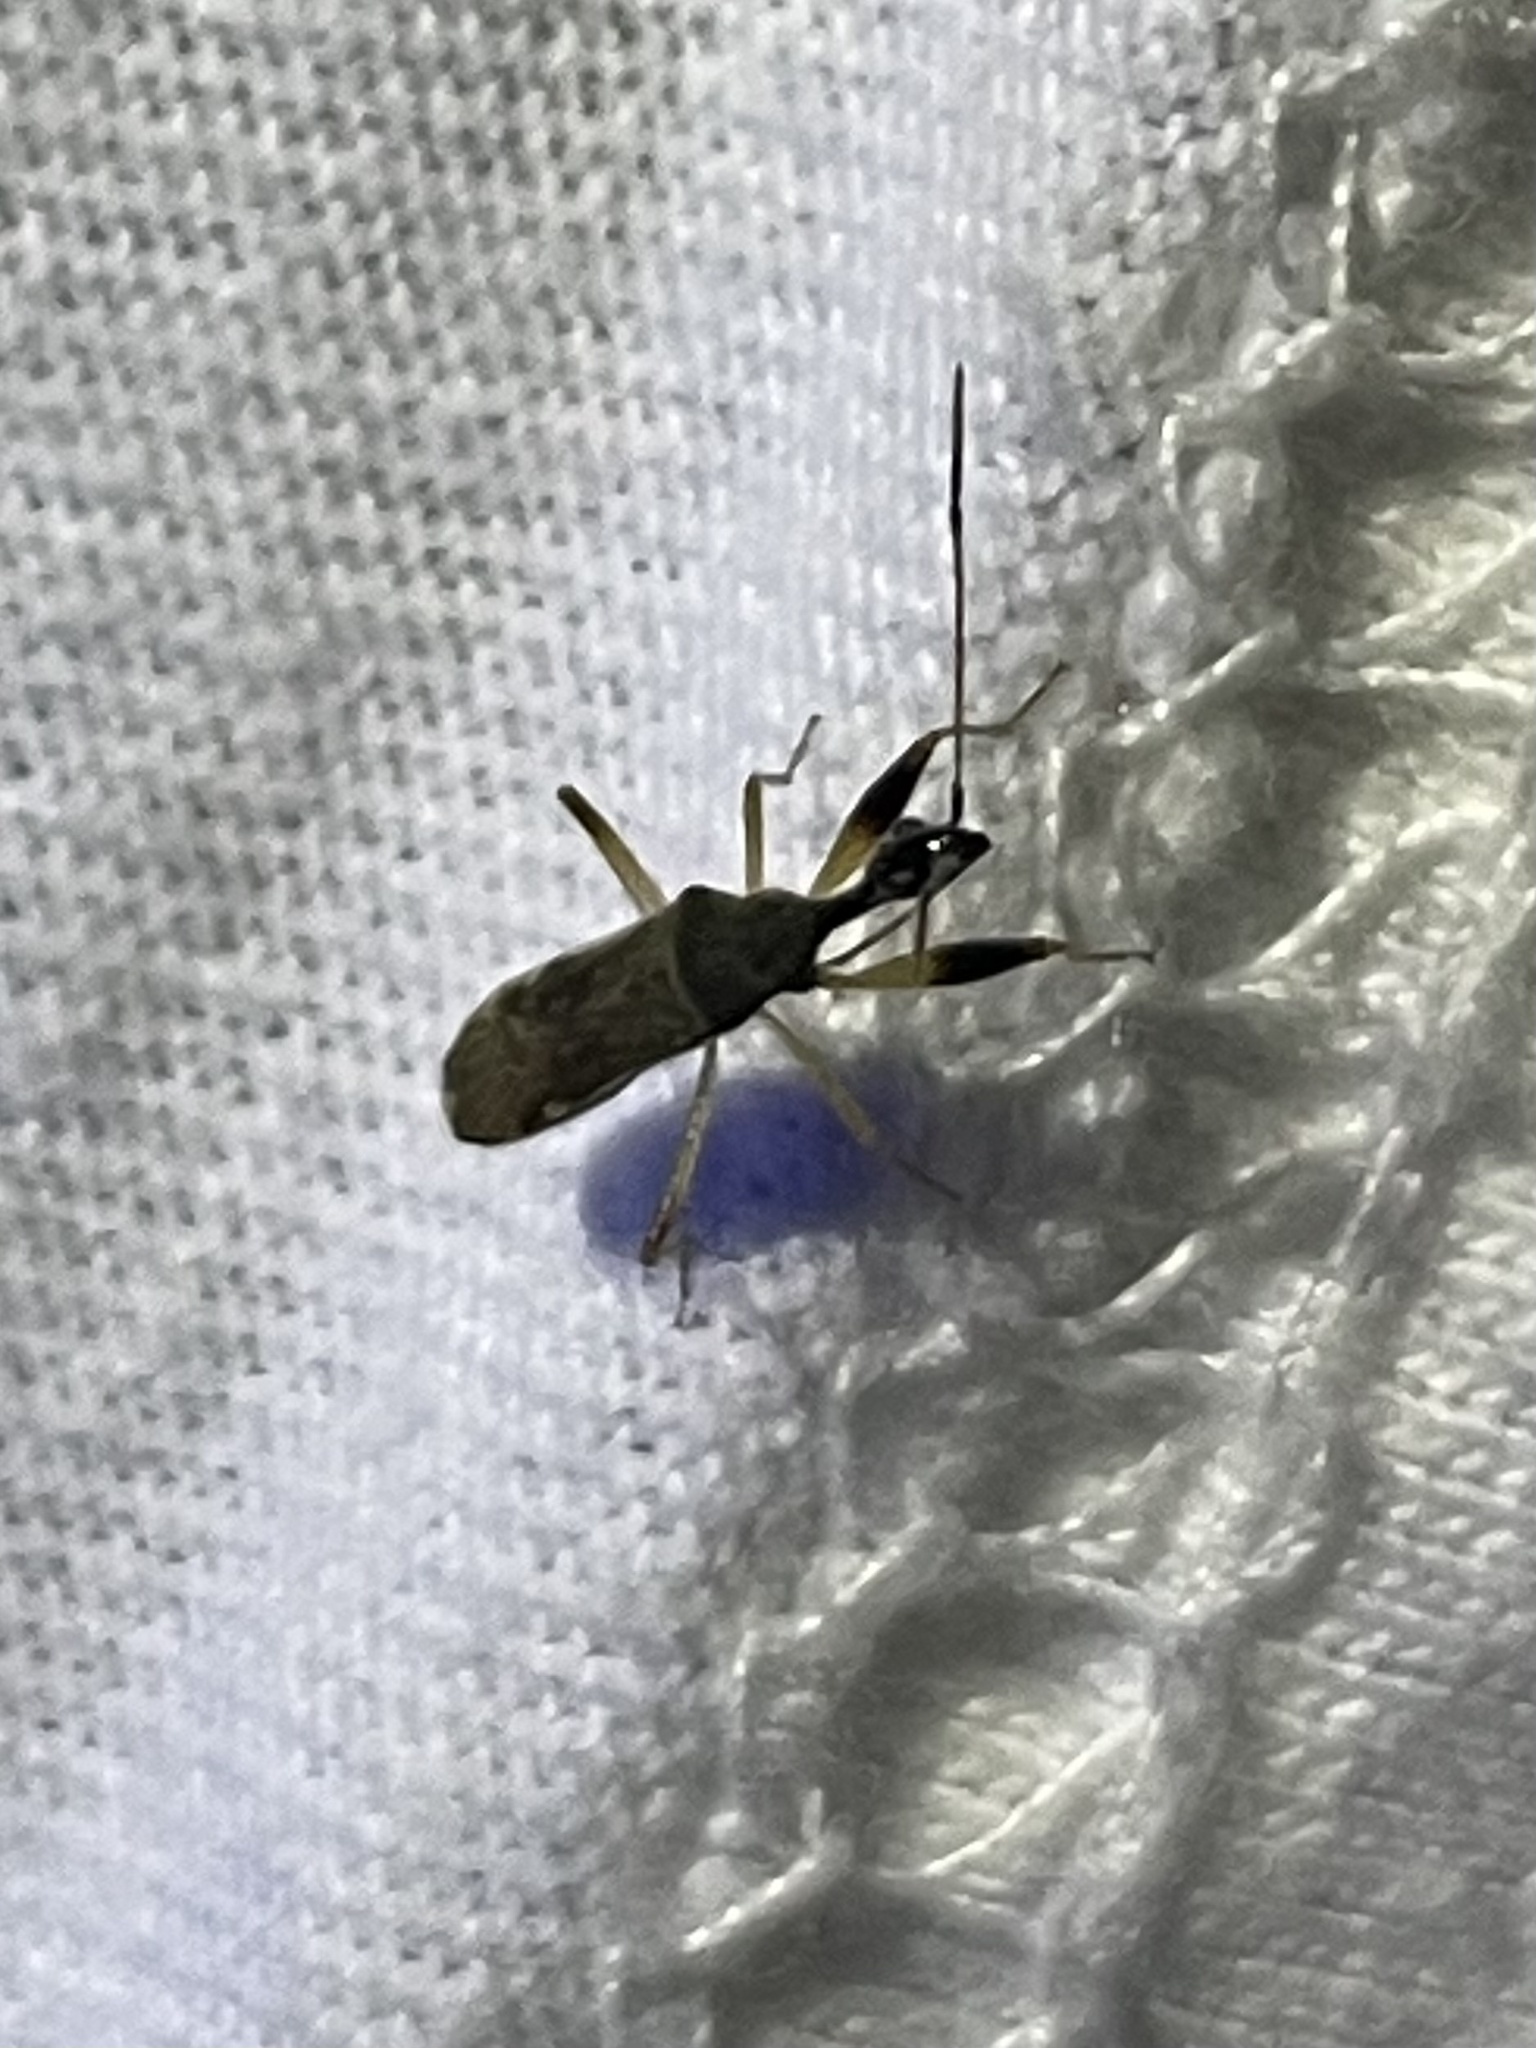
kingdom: Animalia
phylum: Arthropoda
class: Insecta
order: Hemiptera
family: Rhyparochromidae
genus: Myodocha
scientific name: Myodocha serripes
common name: Long-necked seed bug
